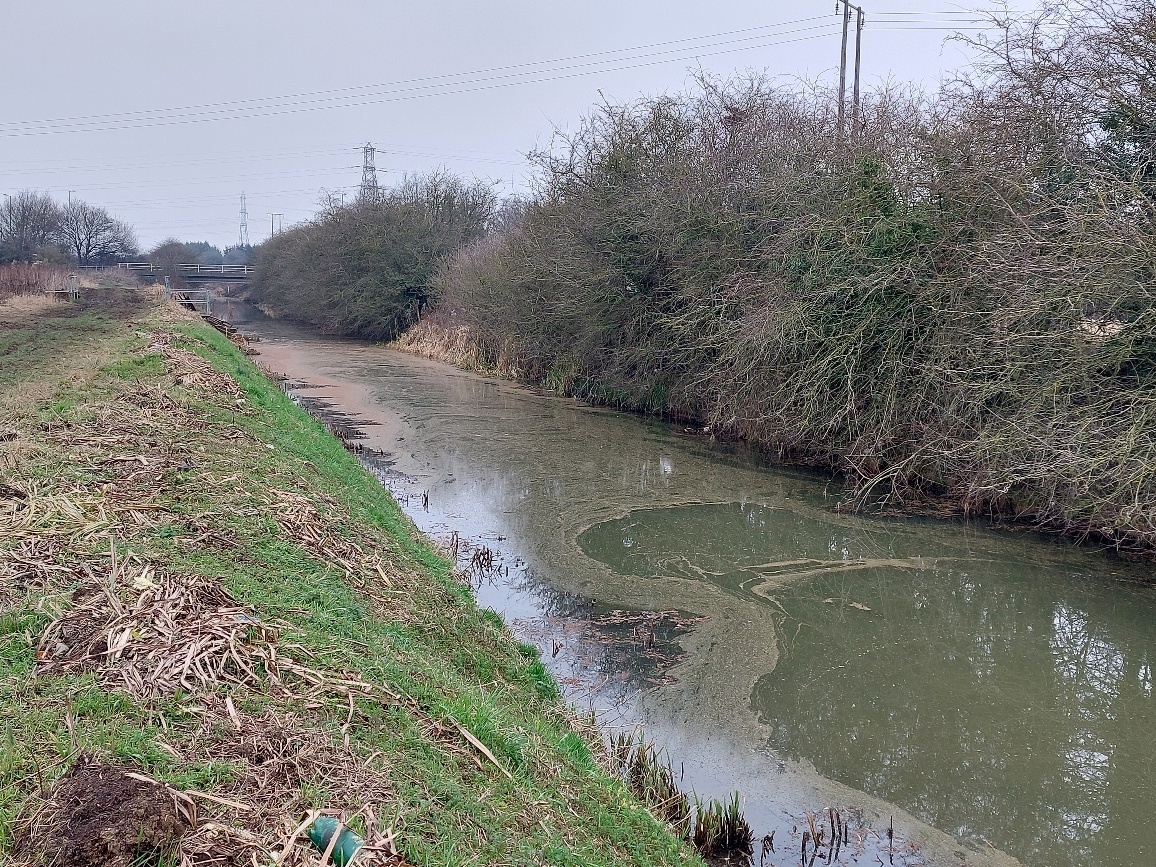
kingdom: Plantae
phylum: Tracheophyta
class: Polypodiopsida
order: Salviniales
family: Salviniaceae
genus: Azolla
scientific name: Azolla filiculoides
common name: Water fern
